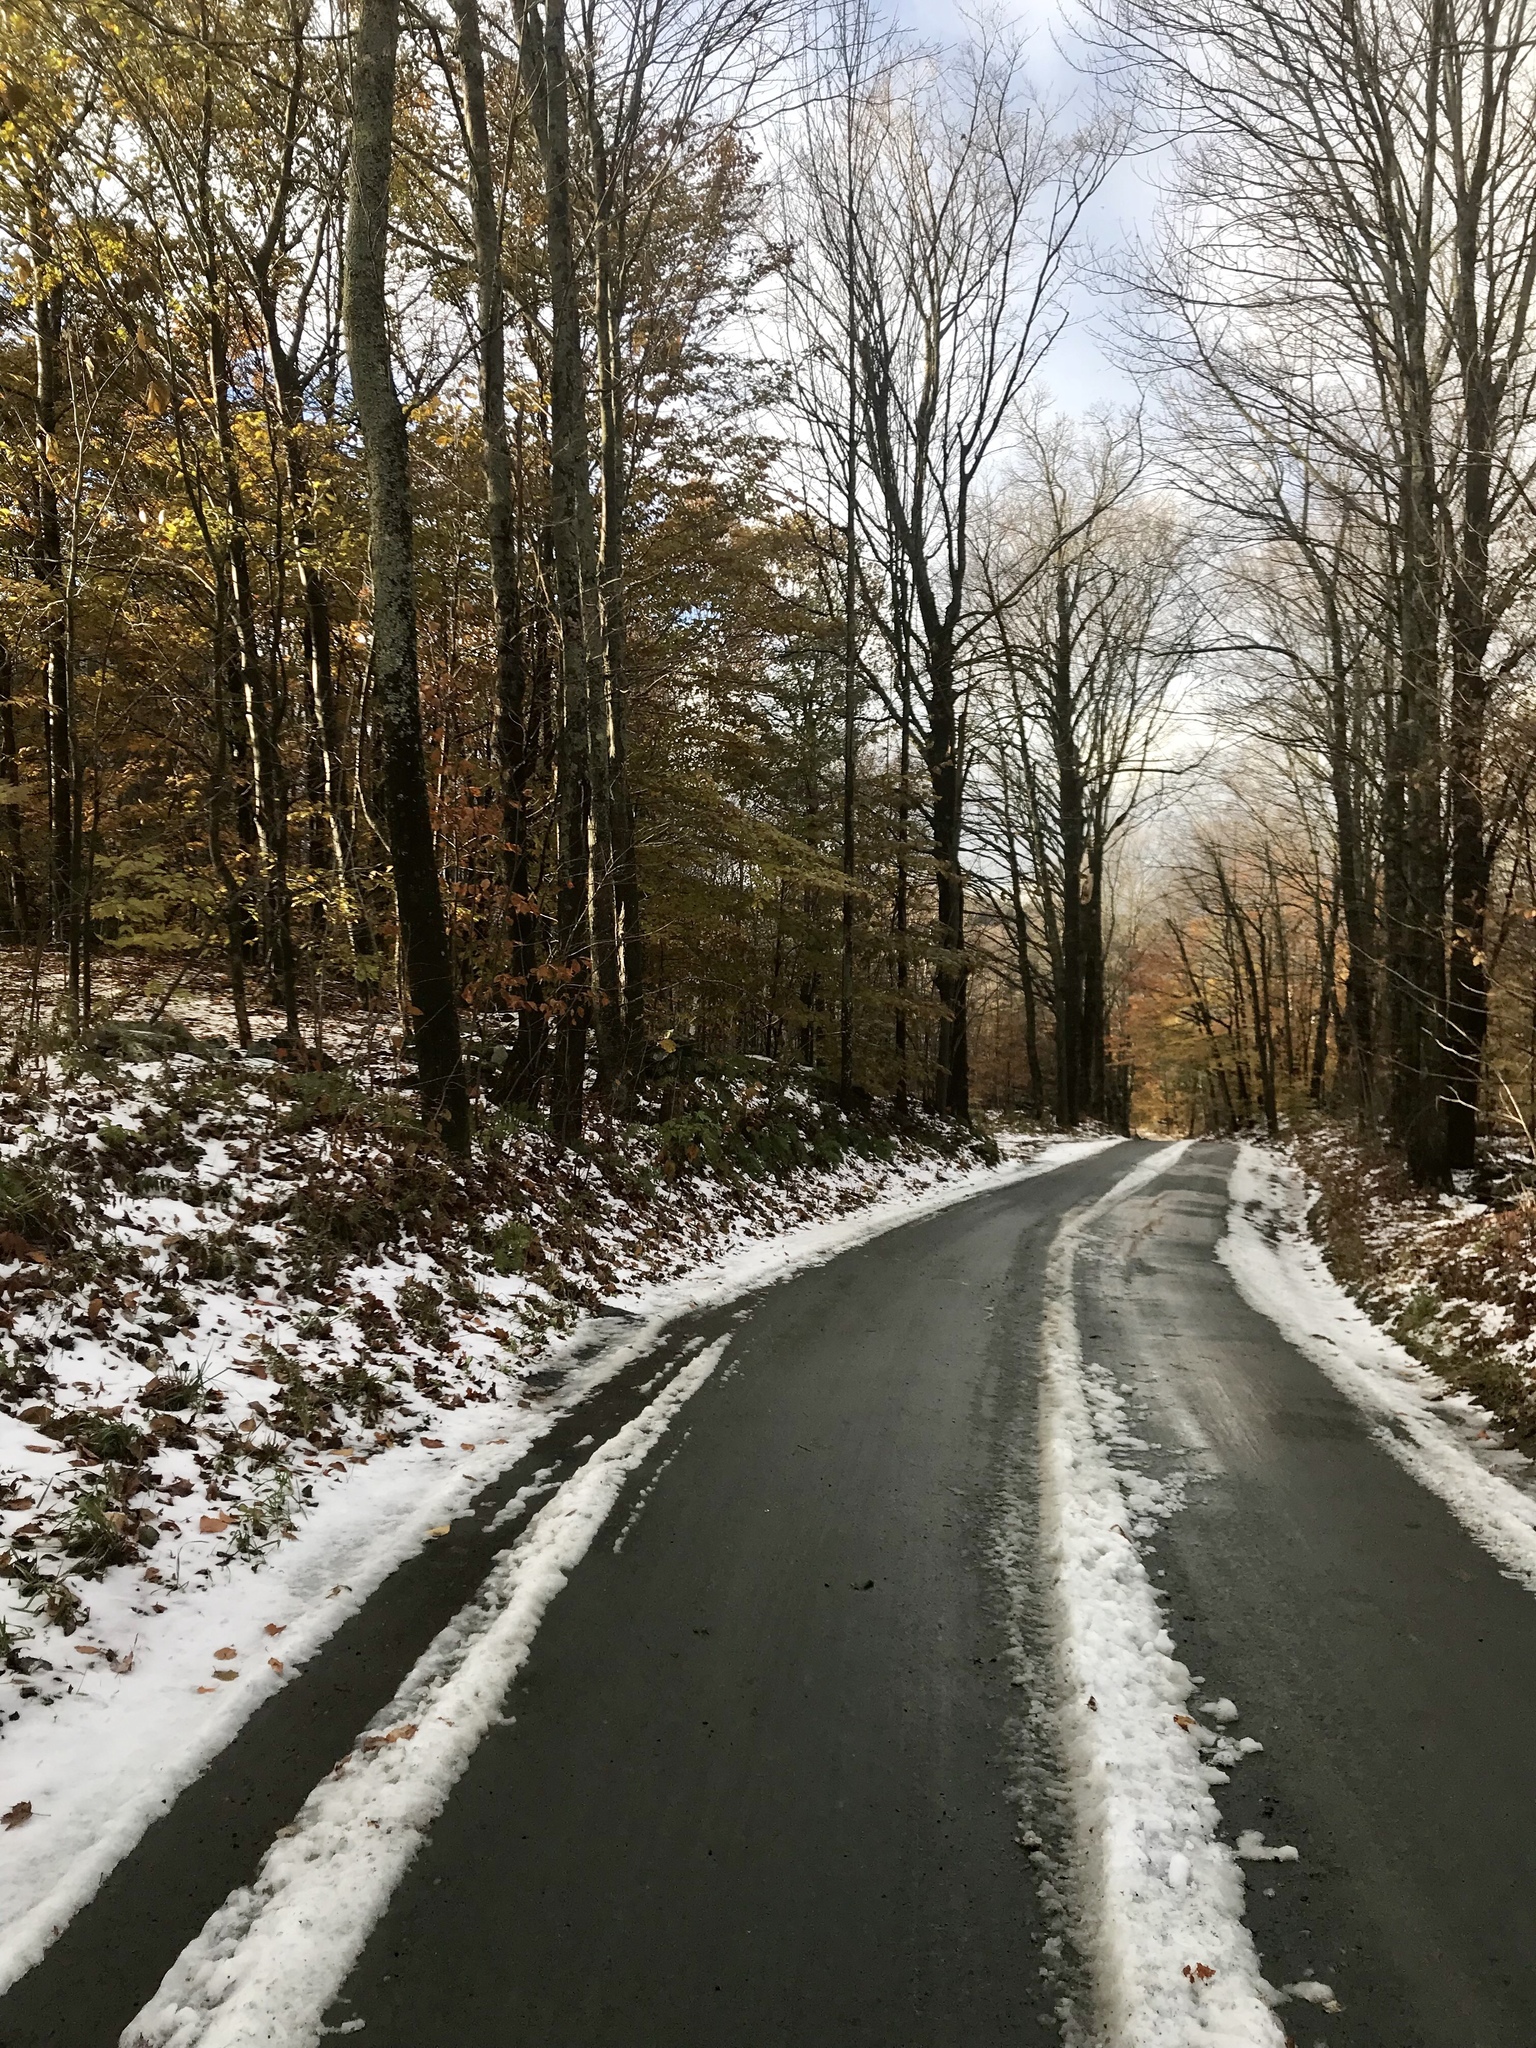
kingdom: Plantae
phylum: Tracheophyta
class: Magnoliopsida
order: Sapindales
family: Sapindaceae
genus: Acer
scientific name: Acer saccharum
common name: Sugar maple
